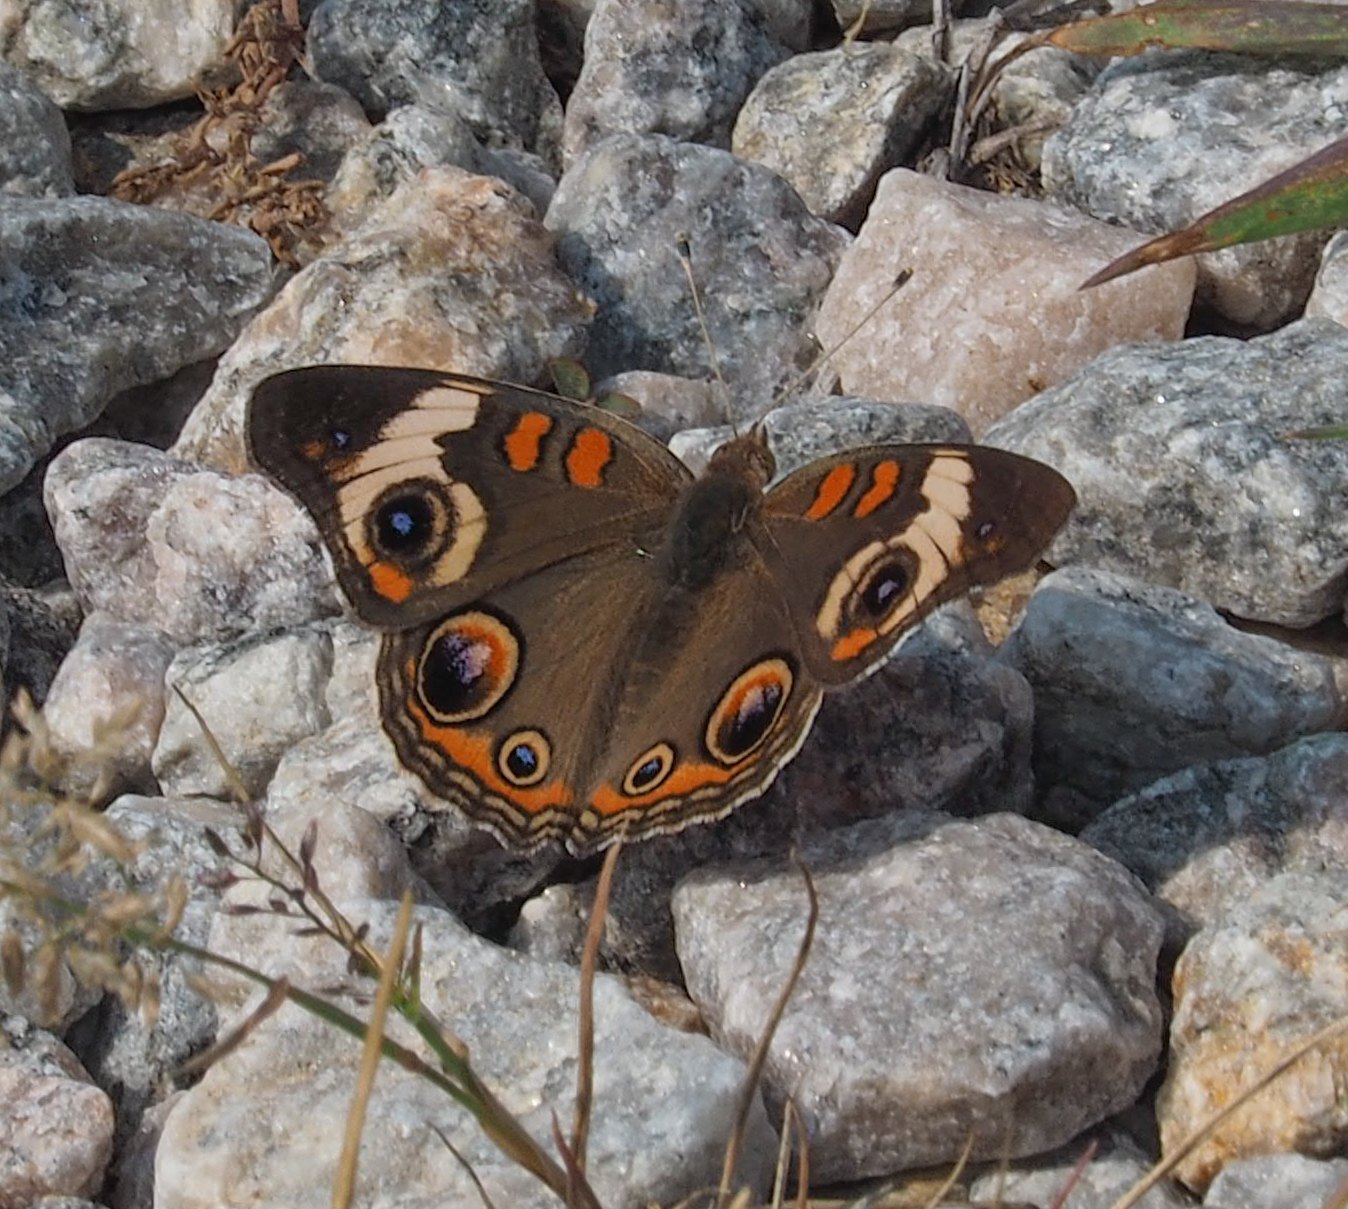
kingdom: Animalia
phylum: Arthropoda
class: Insecta
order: Lepidoptera
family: Nymphalidae
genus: Junonia
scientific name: Junonia coenia
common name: Common buckeye
